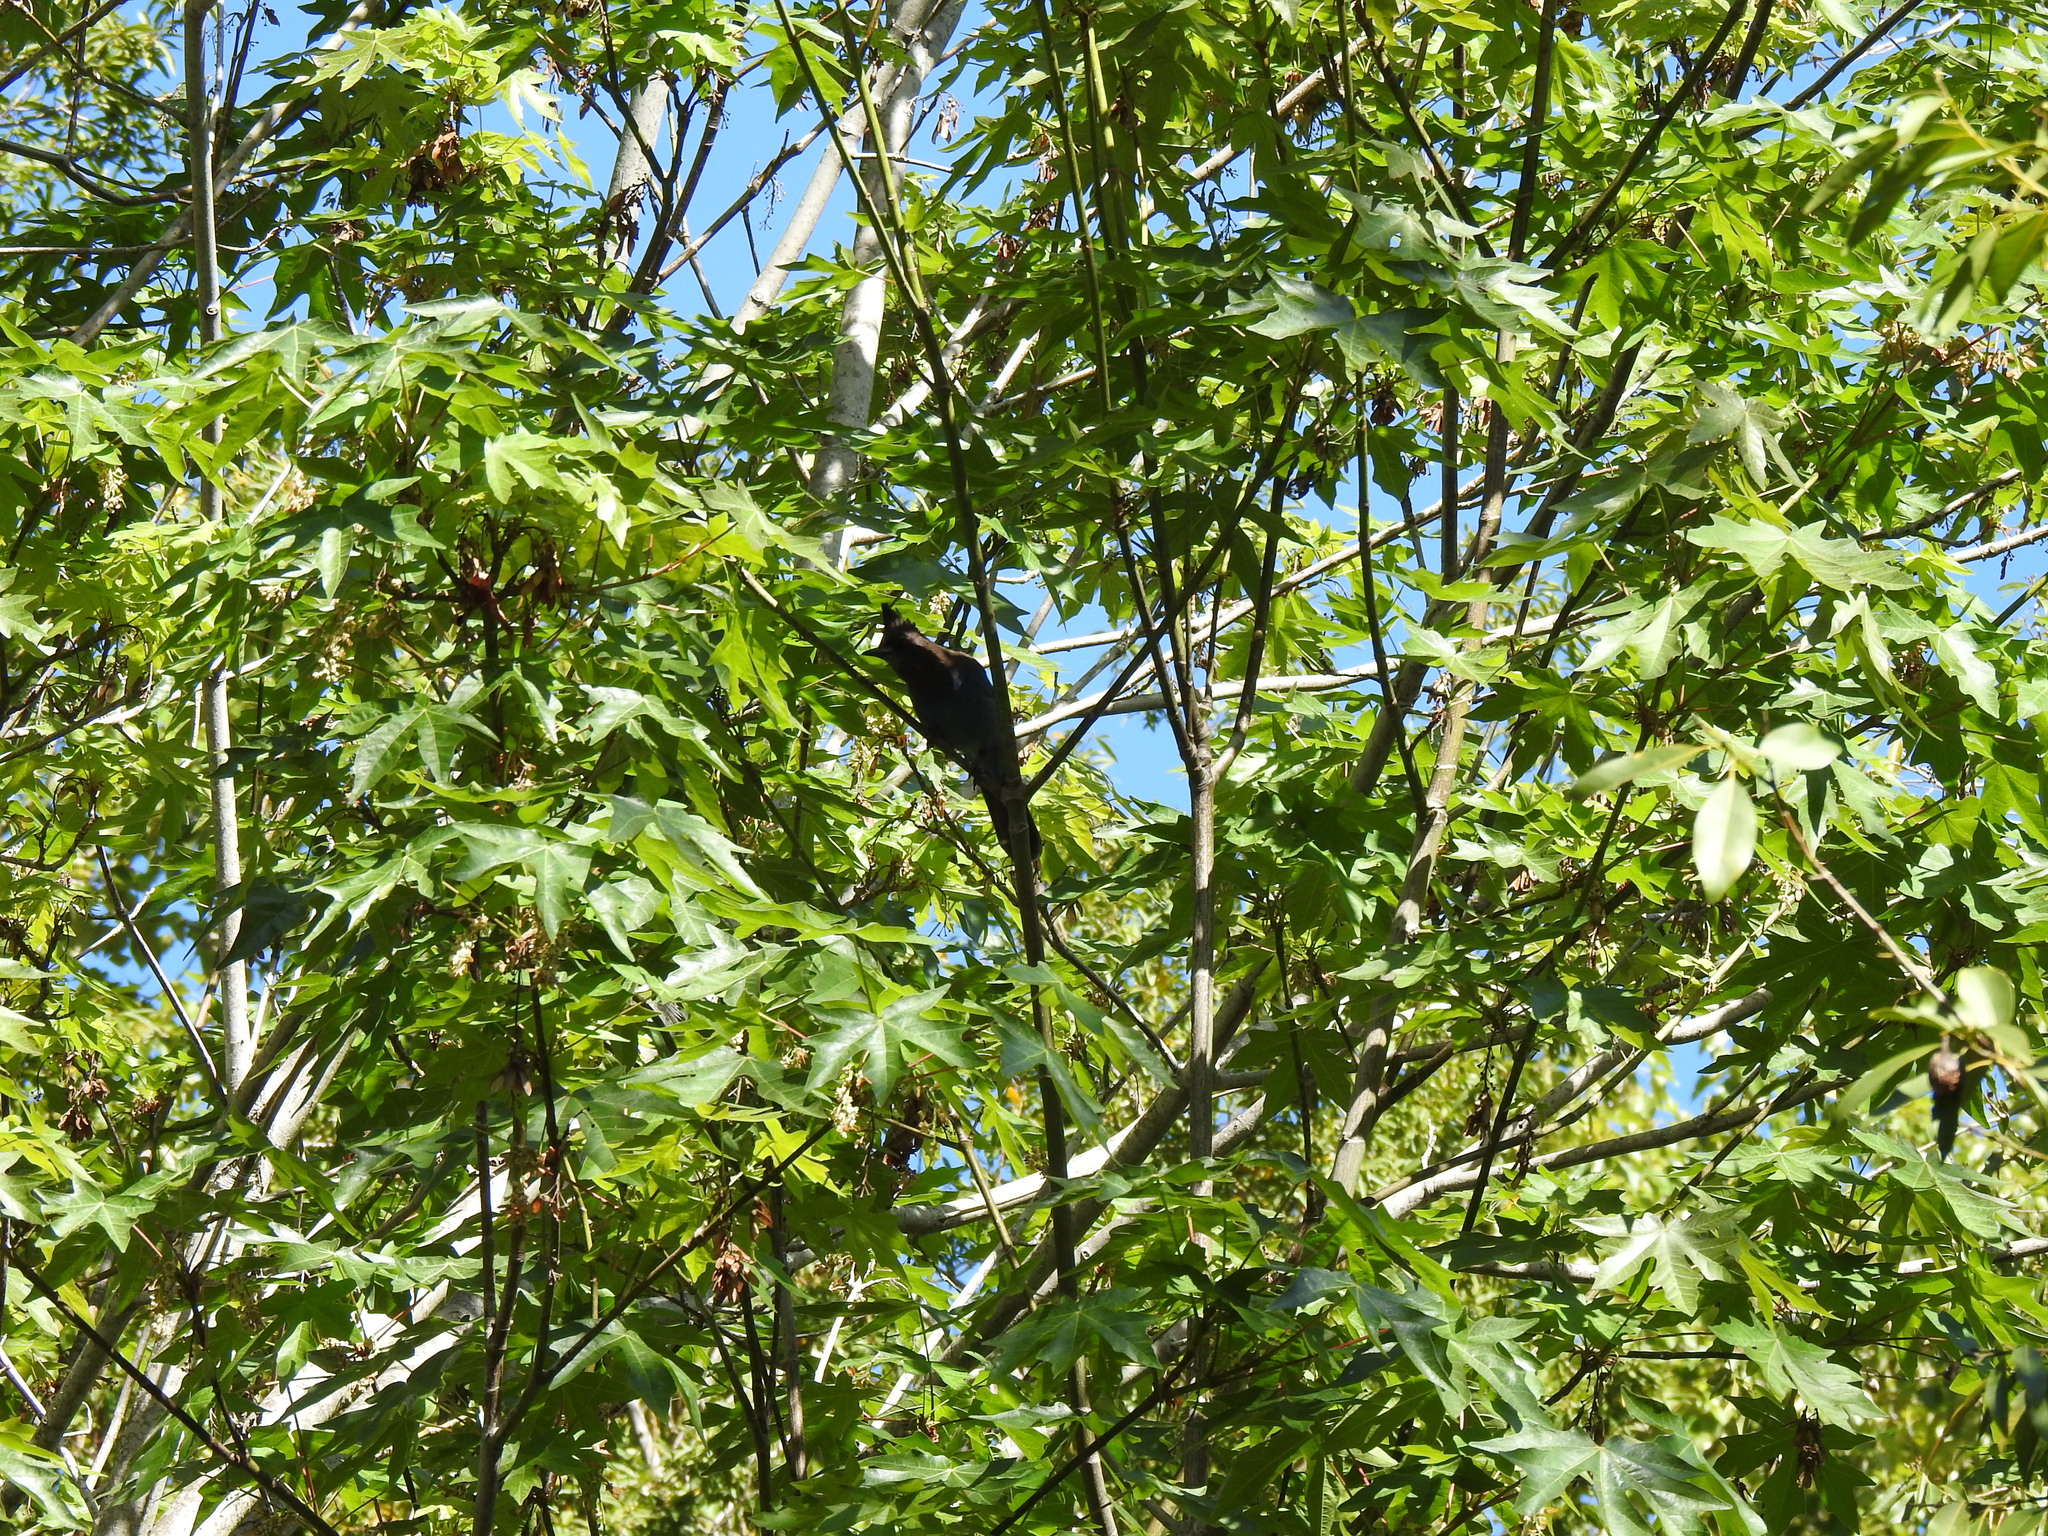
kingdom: Animalia
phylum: Chordata
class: Aves
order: Passeriformes
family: Corvidae
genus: Cyanocitta
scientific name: Cyanocitta stelleri
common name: Steller's jay
